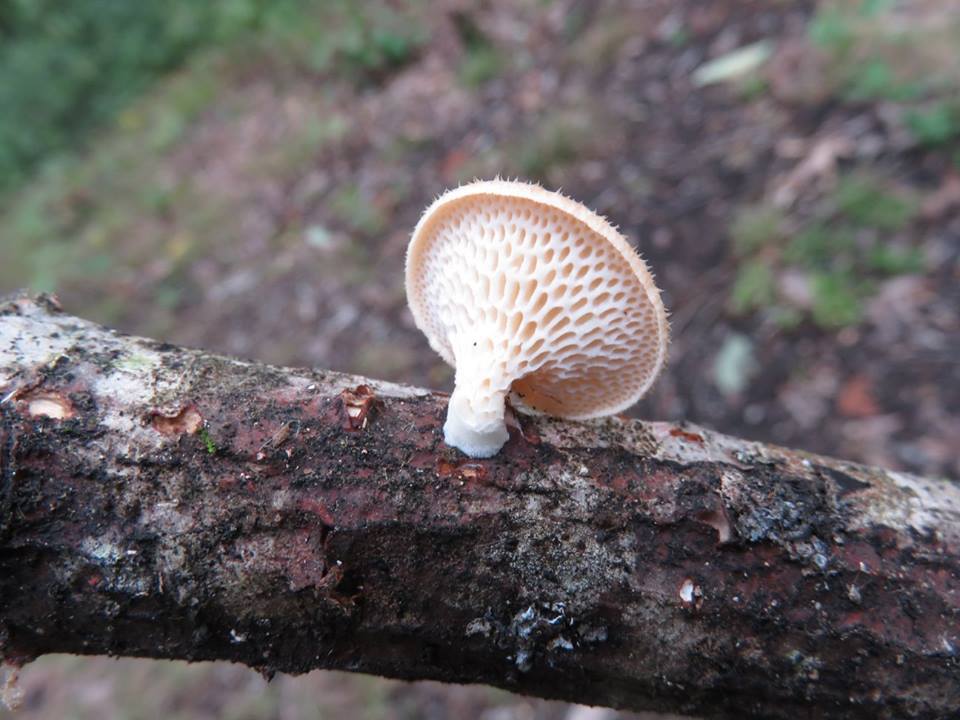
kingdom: Fungi
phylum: Basidiomycota
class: Agaricomycetes
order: Polyporales
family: Polyporaceae
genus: Neofavolus
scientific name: Neofavolus alveolaris
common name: Hexagonal-pored polypore
